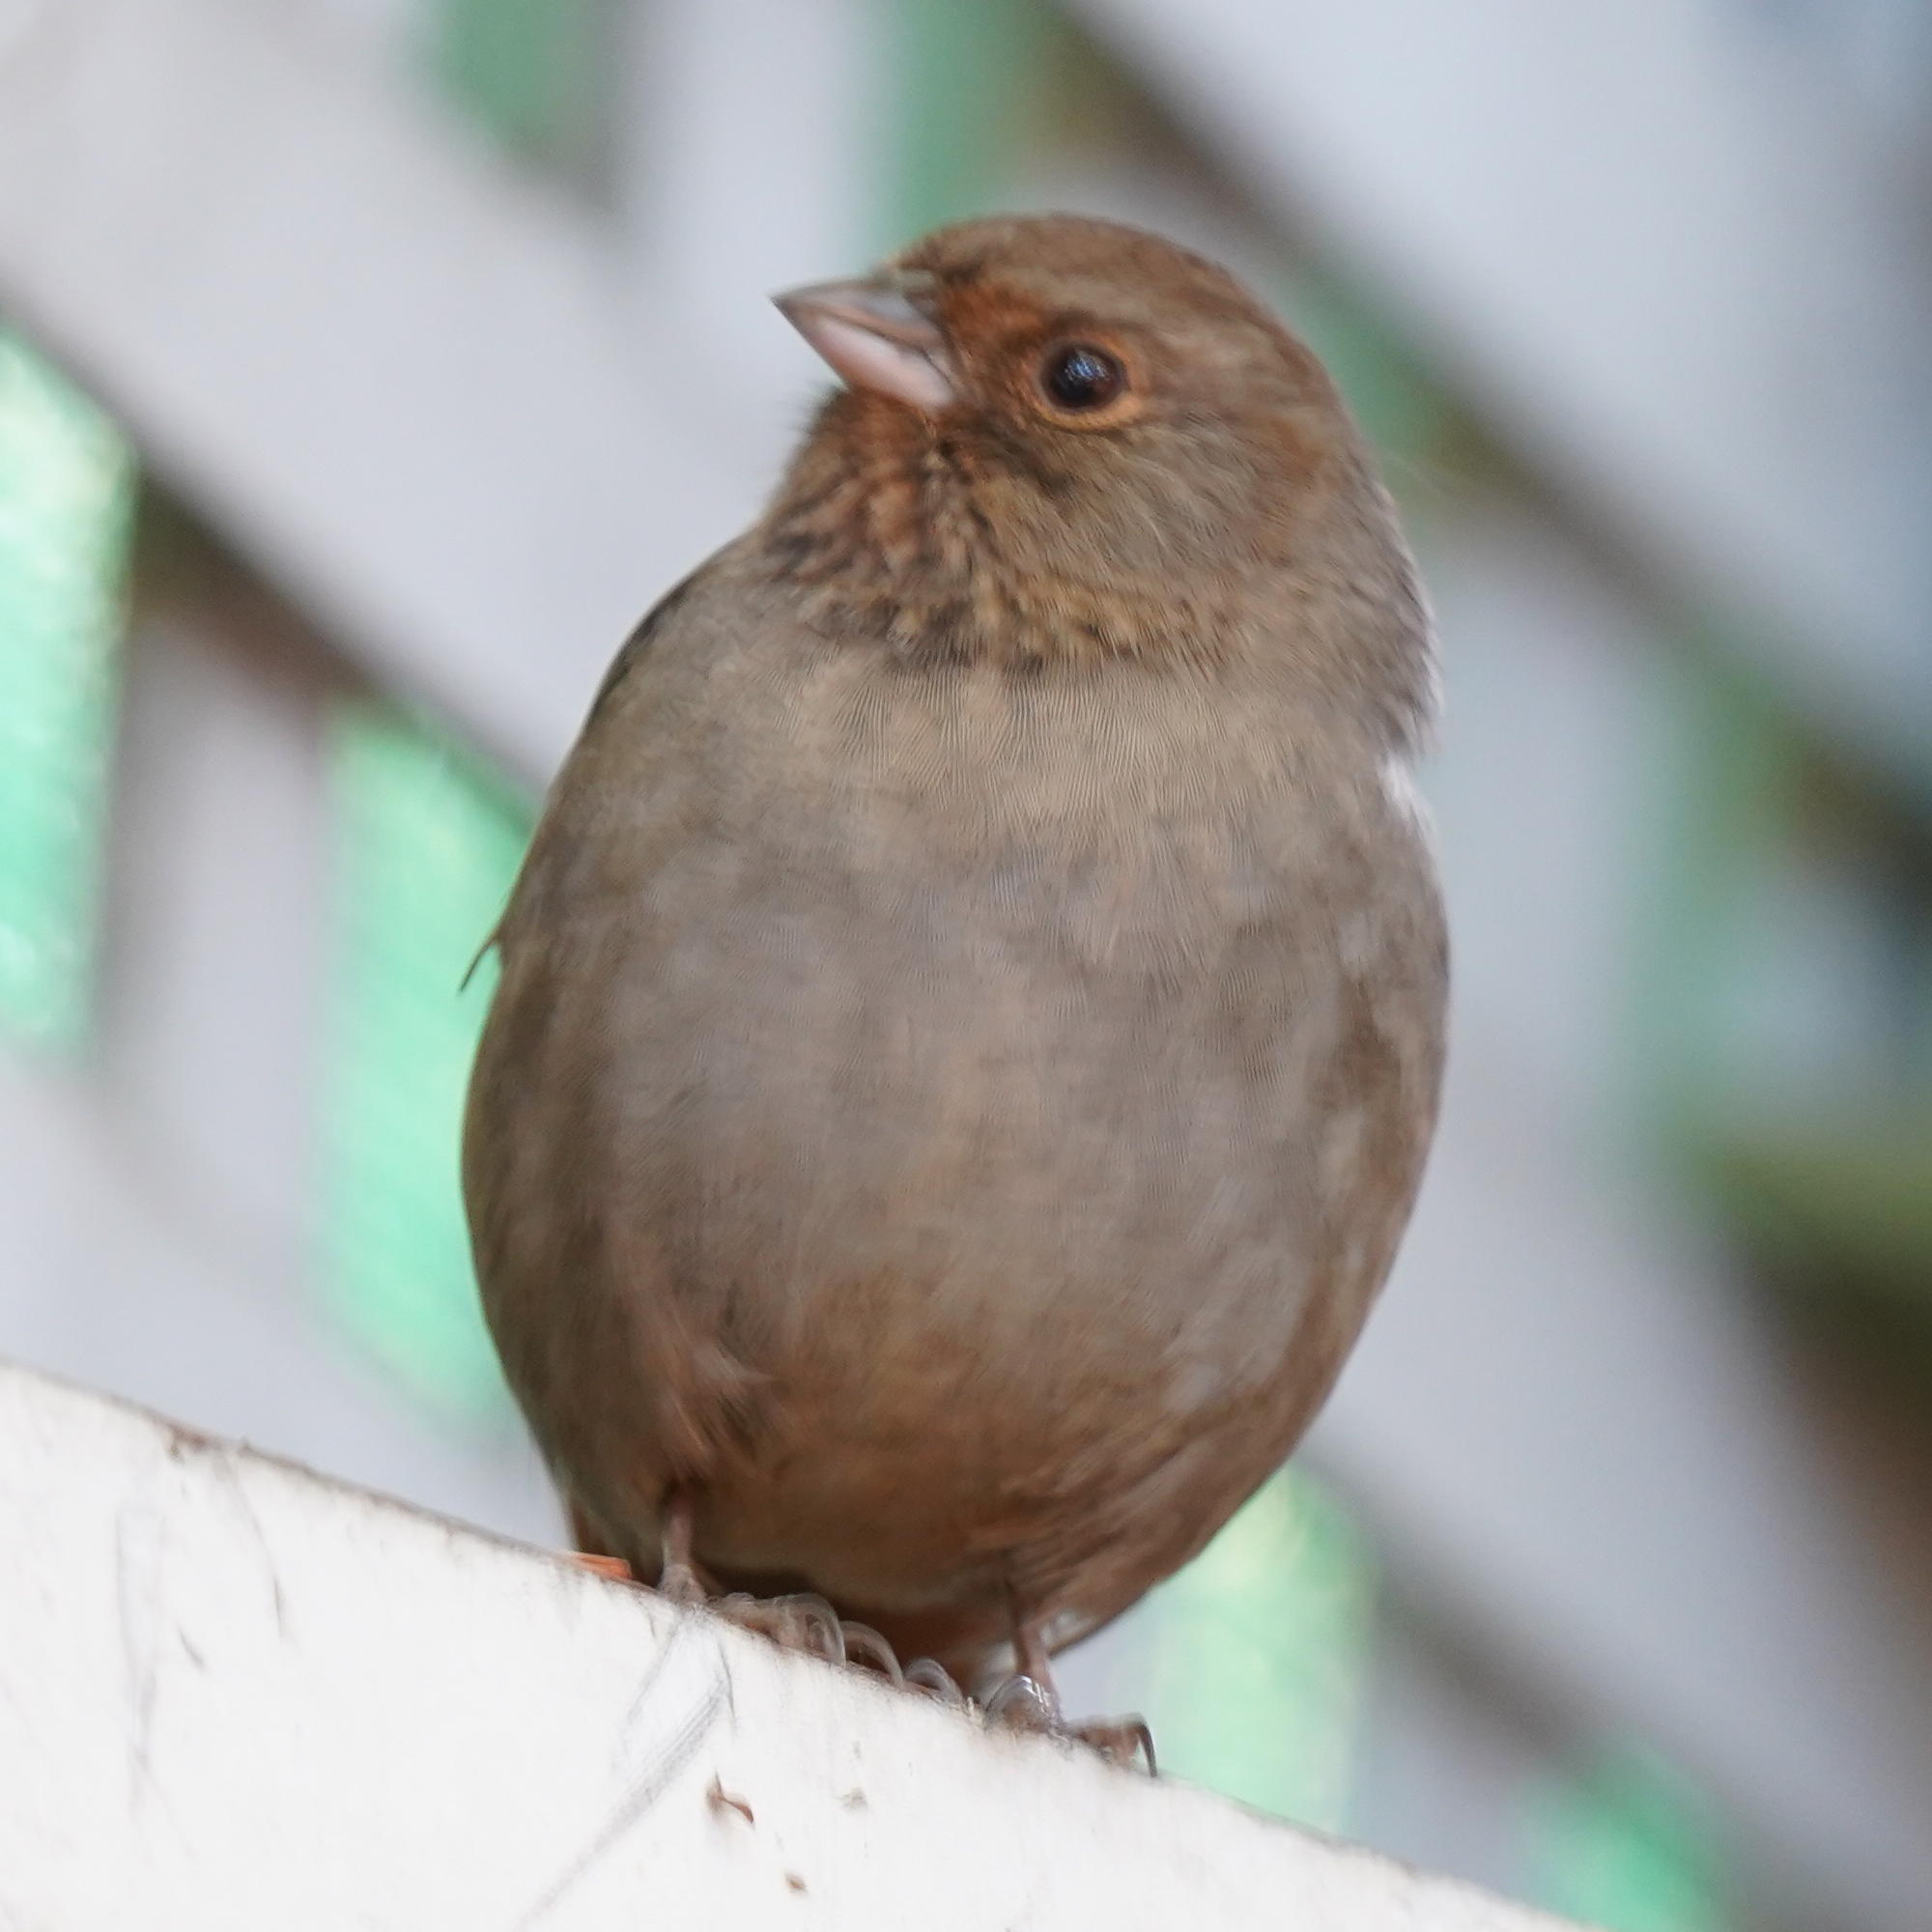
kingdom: Animalia
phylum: Chordata
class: Aves
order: Passeriformes
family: Passerellidae
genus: Melozone
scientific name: Melozone crissalis
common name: California towhee
